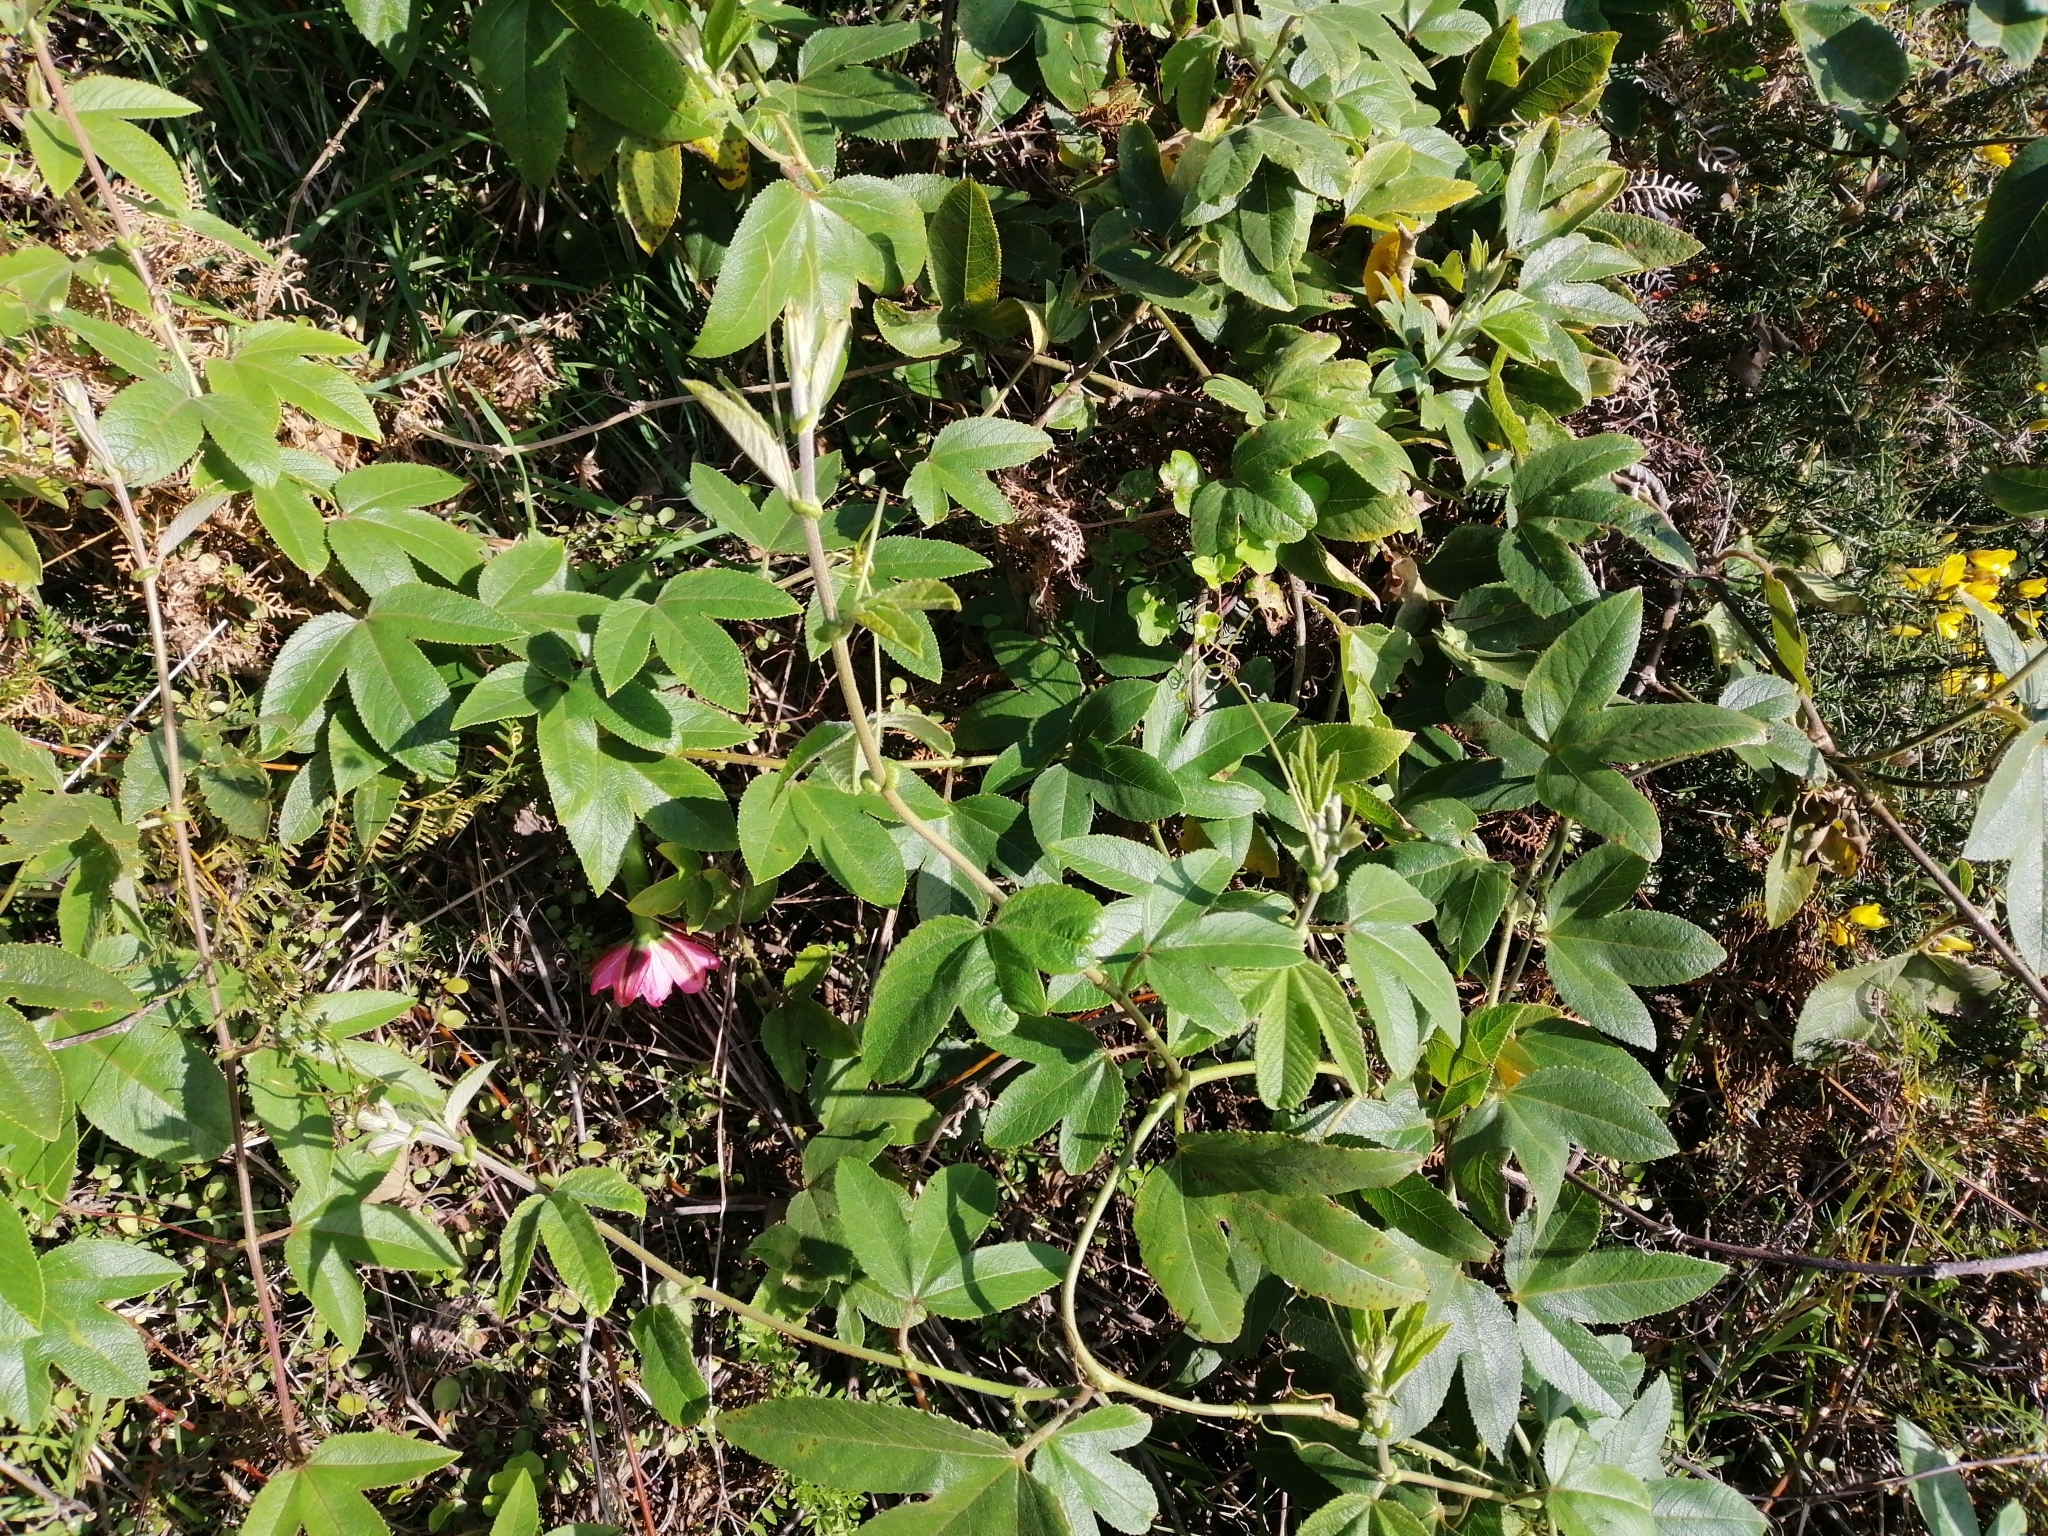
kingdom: Plantae
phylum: Tracheophyta
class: Magnoliopsida
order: Malpighiales
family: Passifloraceae
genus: Passiflora
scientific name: Passiflora tripartita
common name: Banana poka
